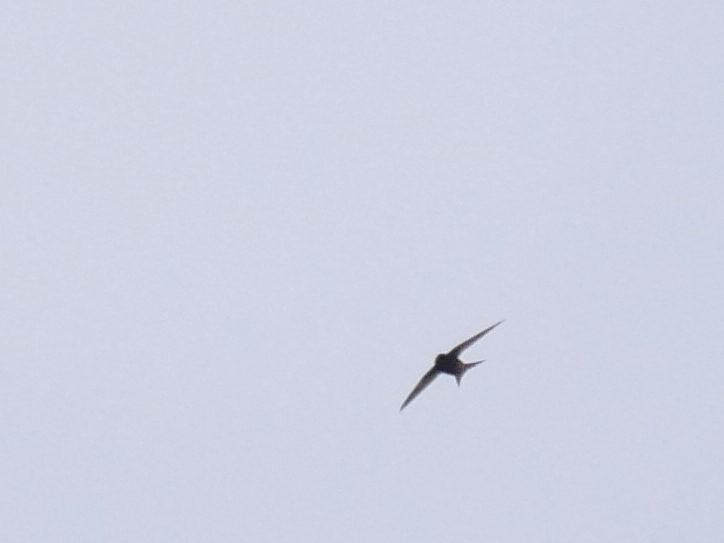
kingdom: Animalia
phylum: Chordata
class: Aves
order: Apodiformes
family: Apodidae
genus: Apus
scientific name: Apus apus
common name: Common swift
